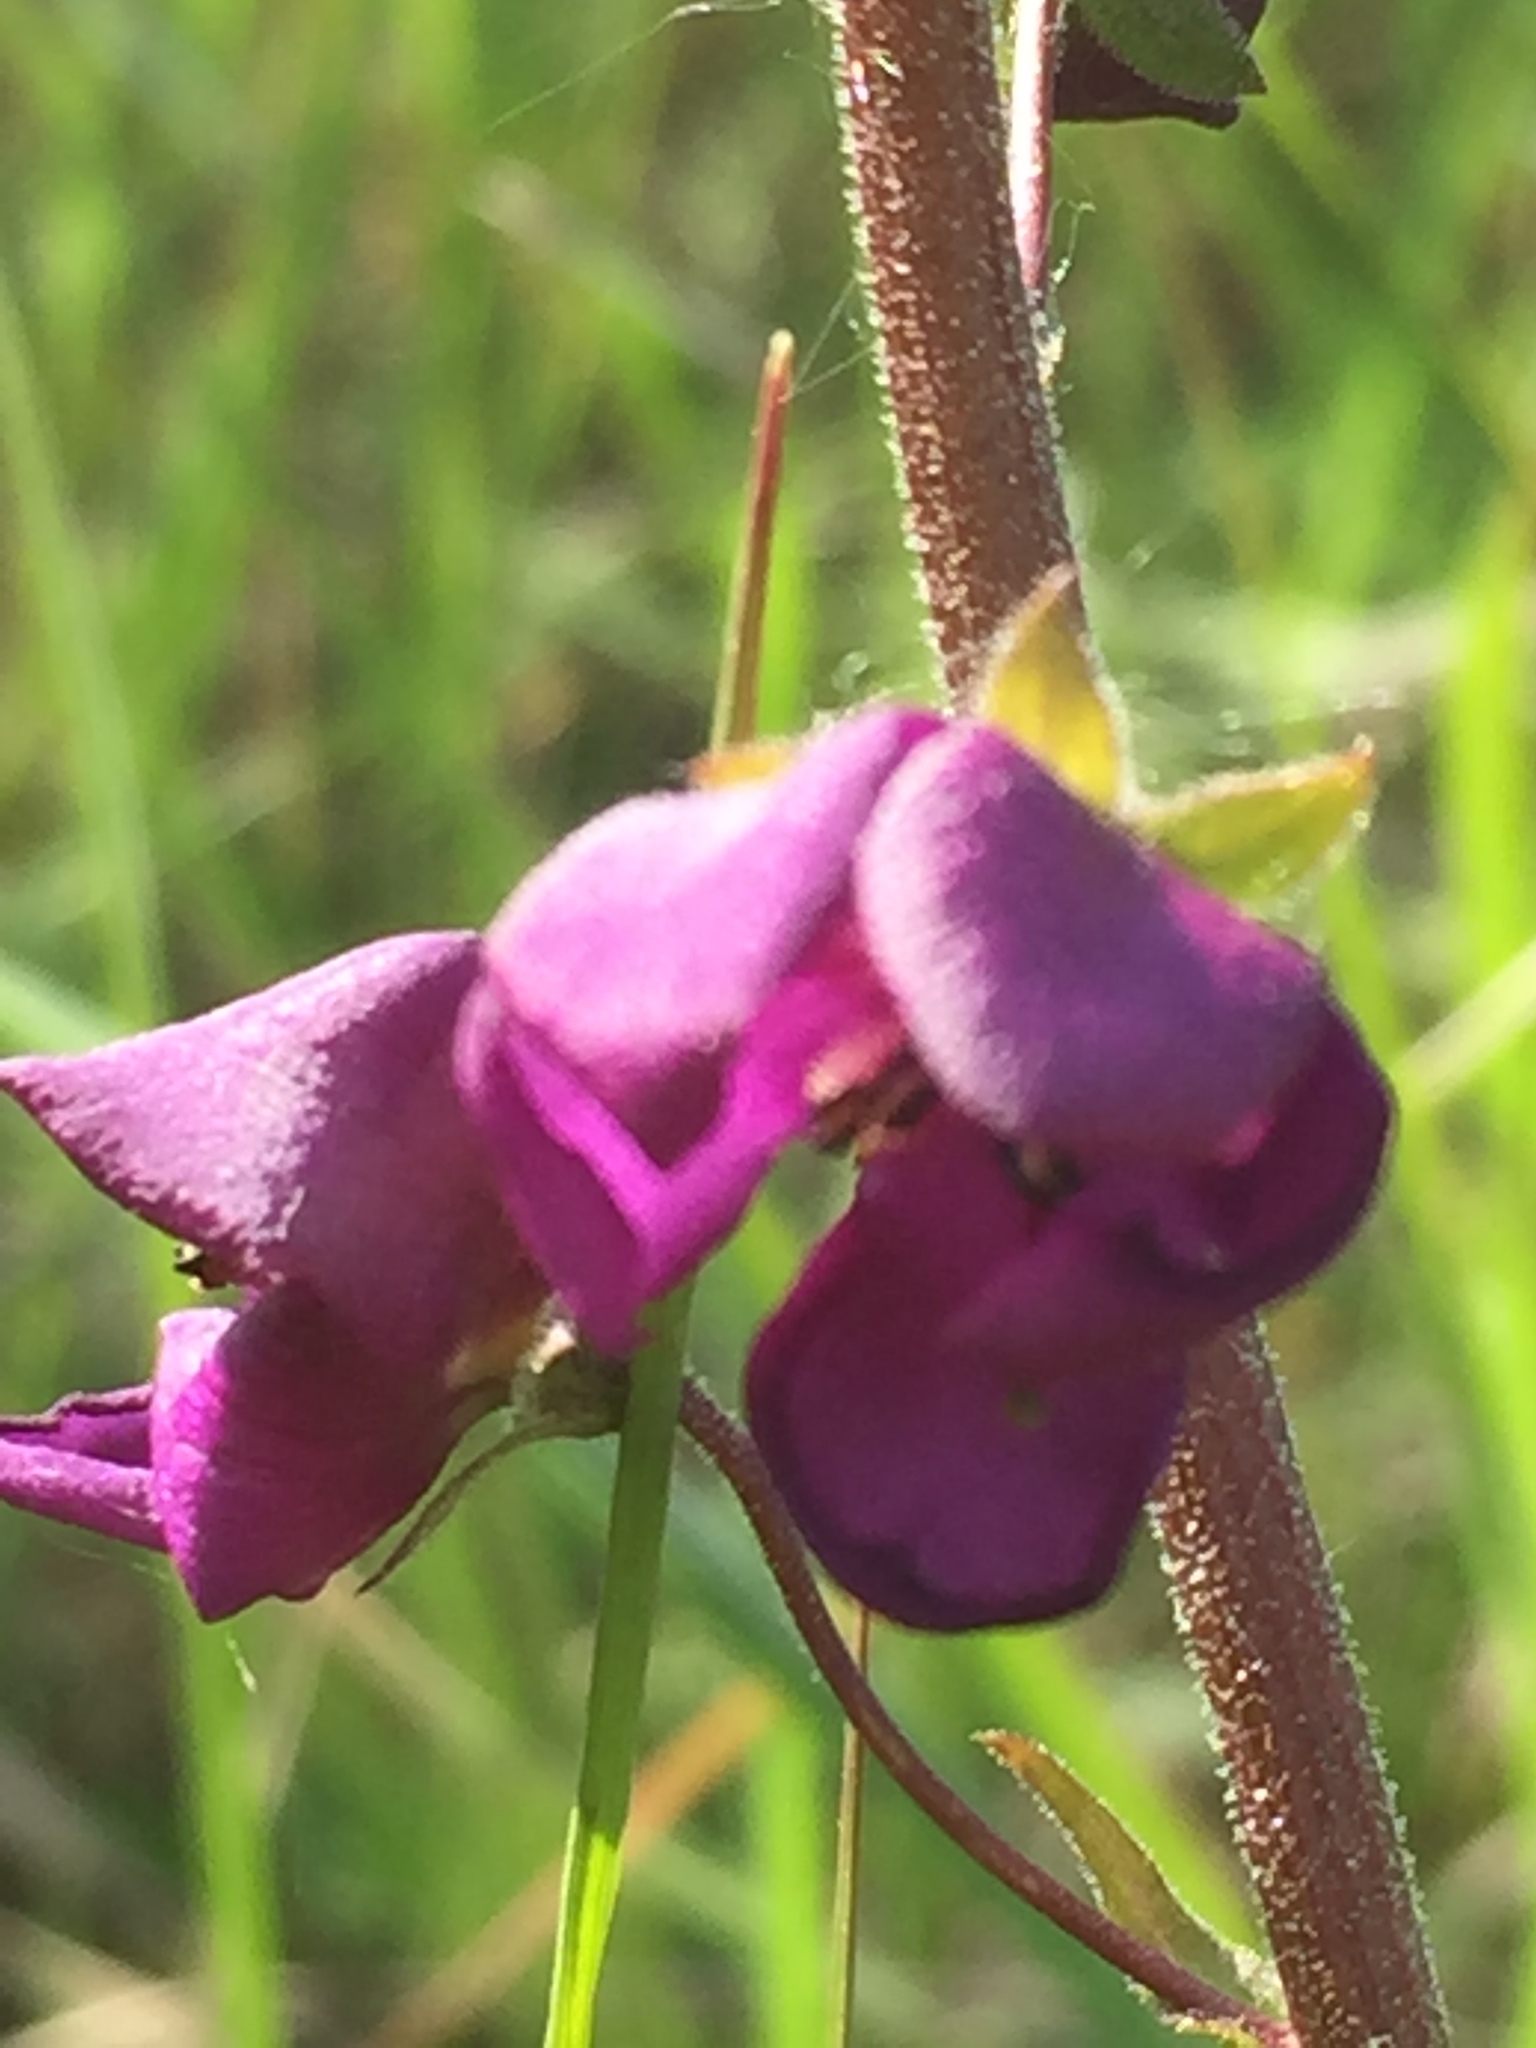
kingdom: Plantae
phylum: Tracheophyta
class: Magnoliopsida
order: Lamiales
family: Scrophulariaceae
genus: Verbascum
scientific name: Verbascum phoeniceum
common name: Purple mullein
